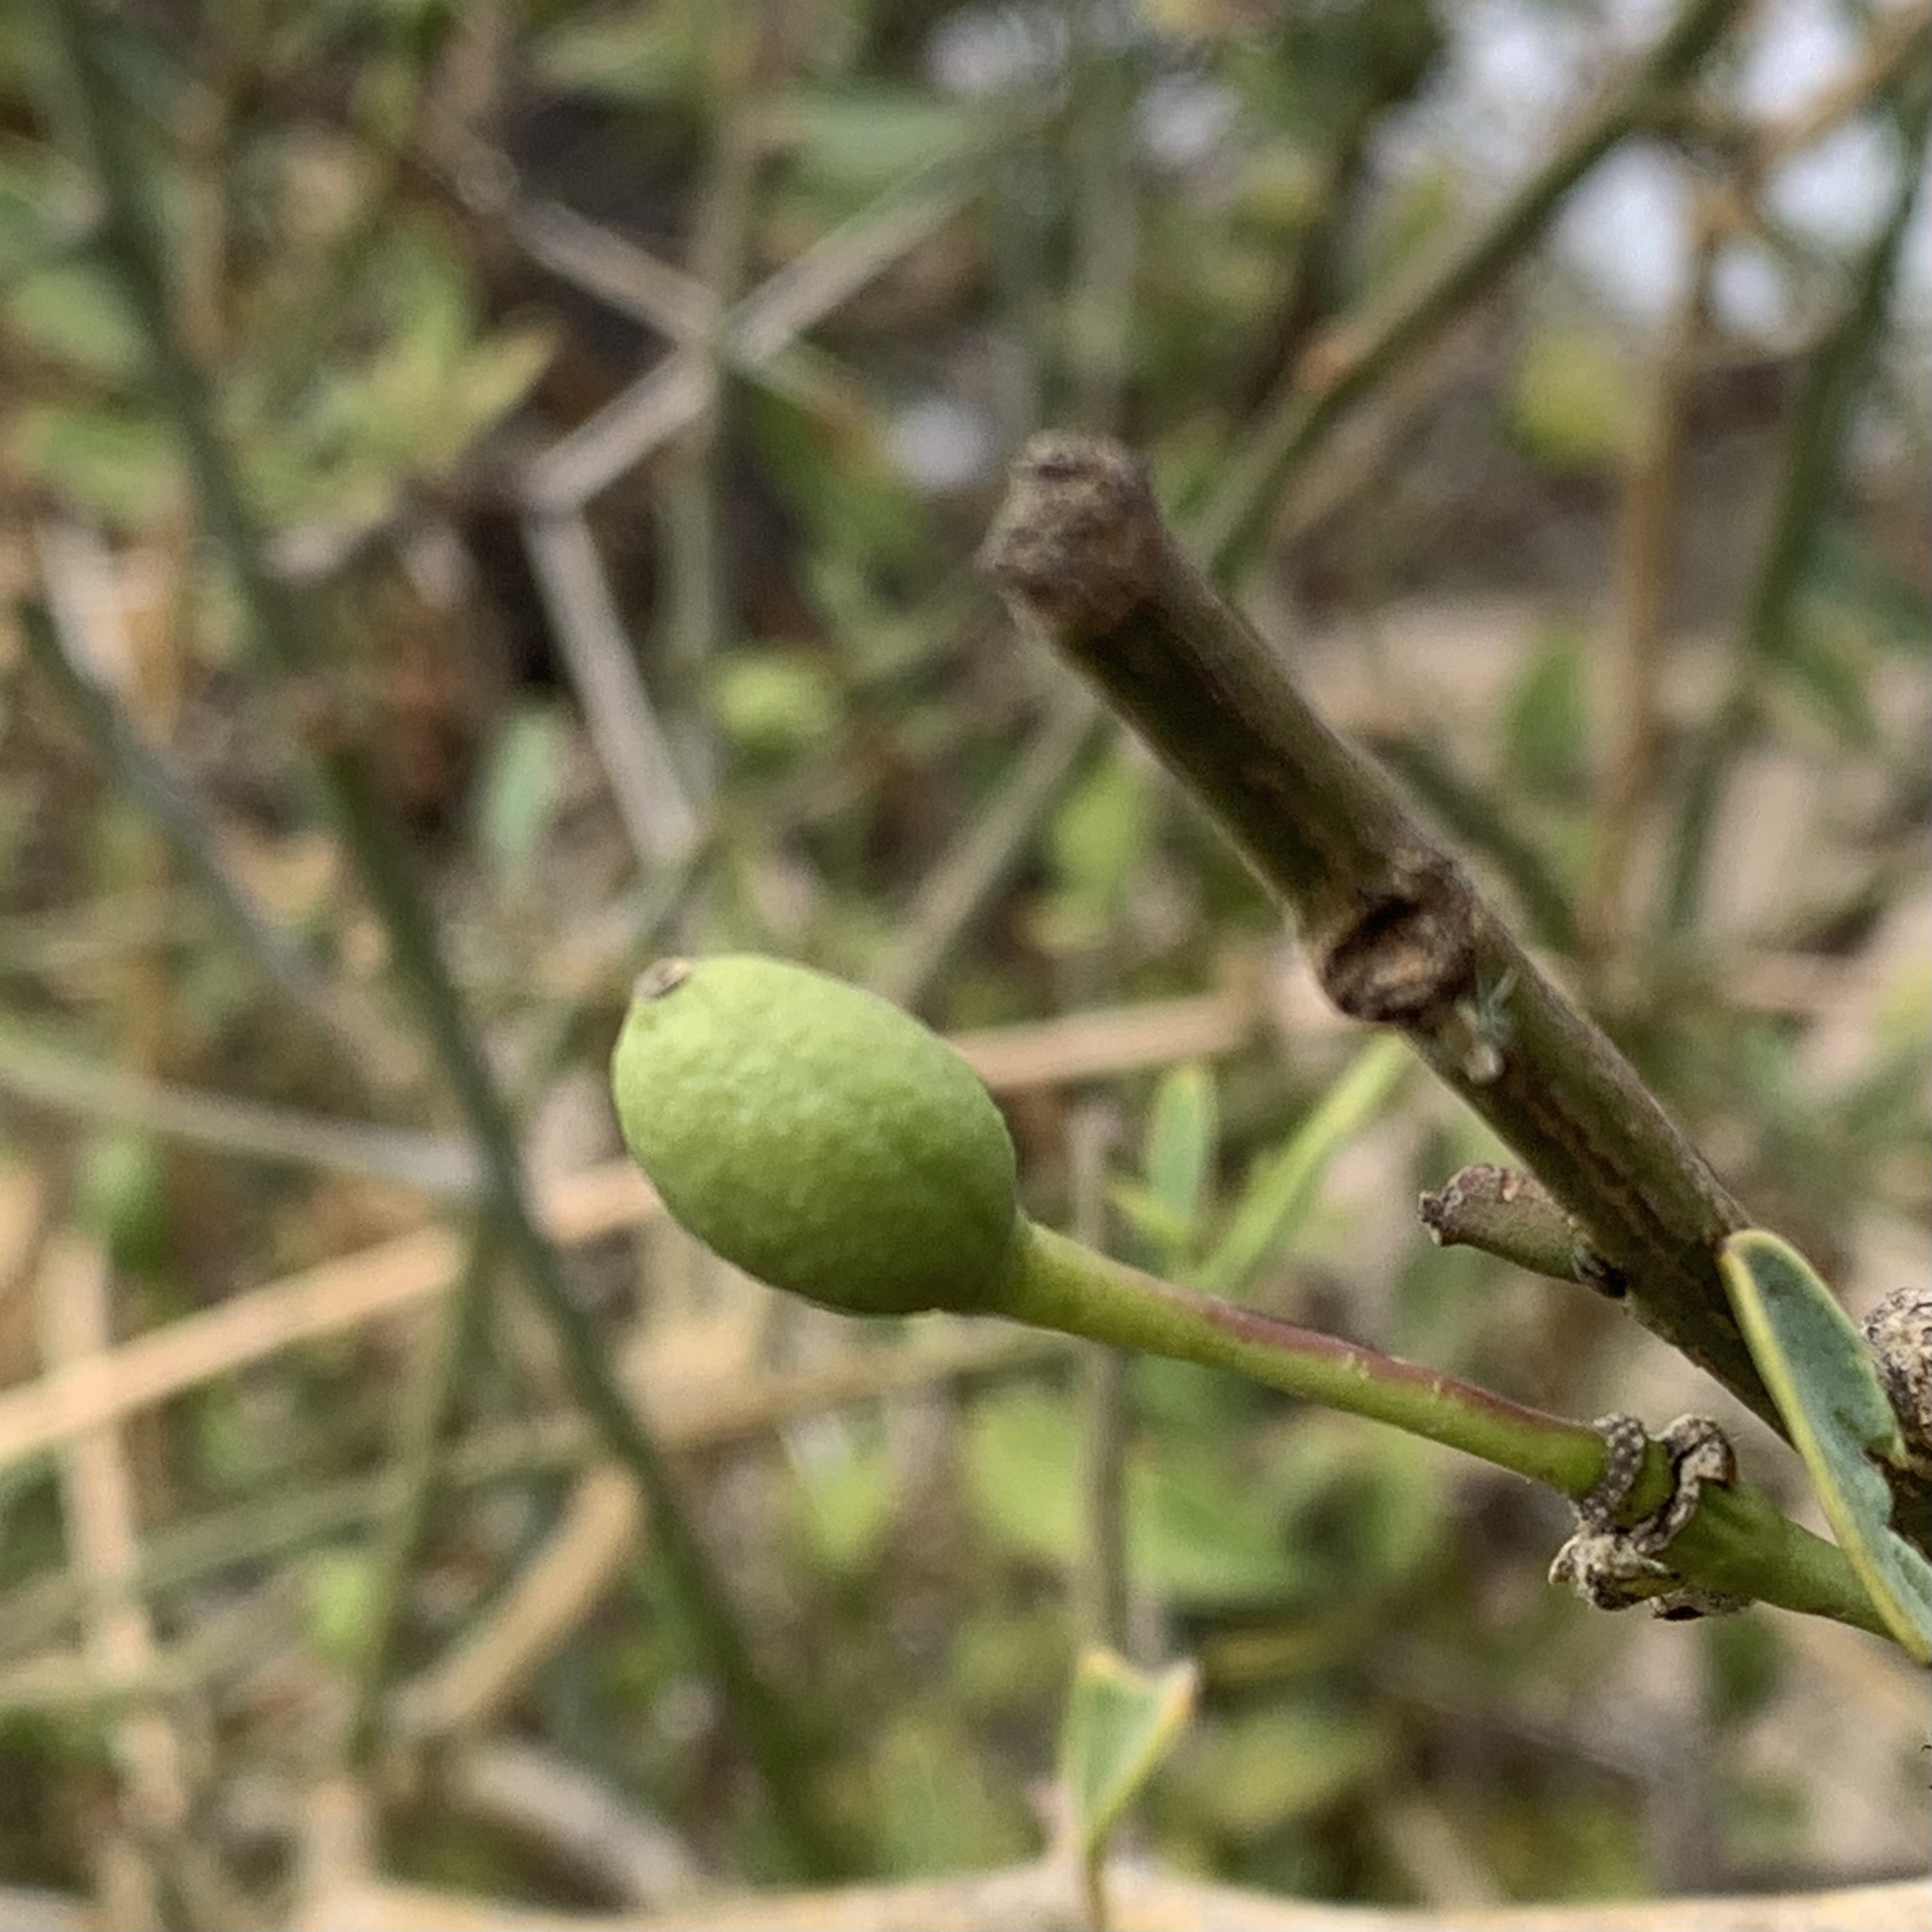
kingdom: Plantae
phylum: Tracheophyta
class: Magnoliopsida
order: Brassicales
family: Capparaceae
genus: Maerua
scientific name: Maerua juncea
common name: Rough-skinned bush cherry
